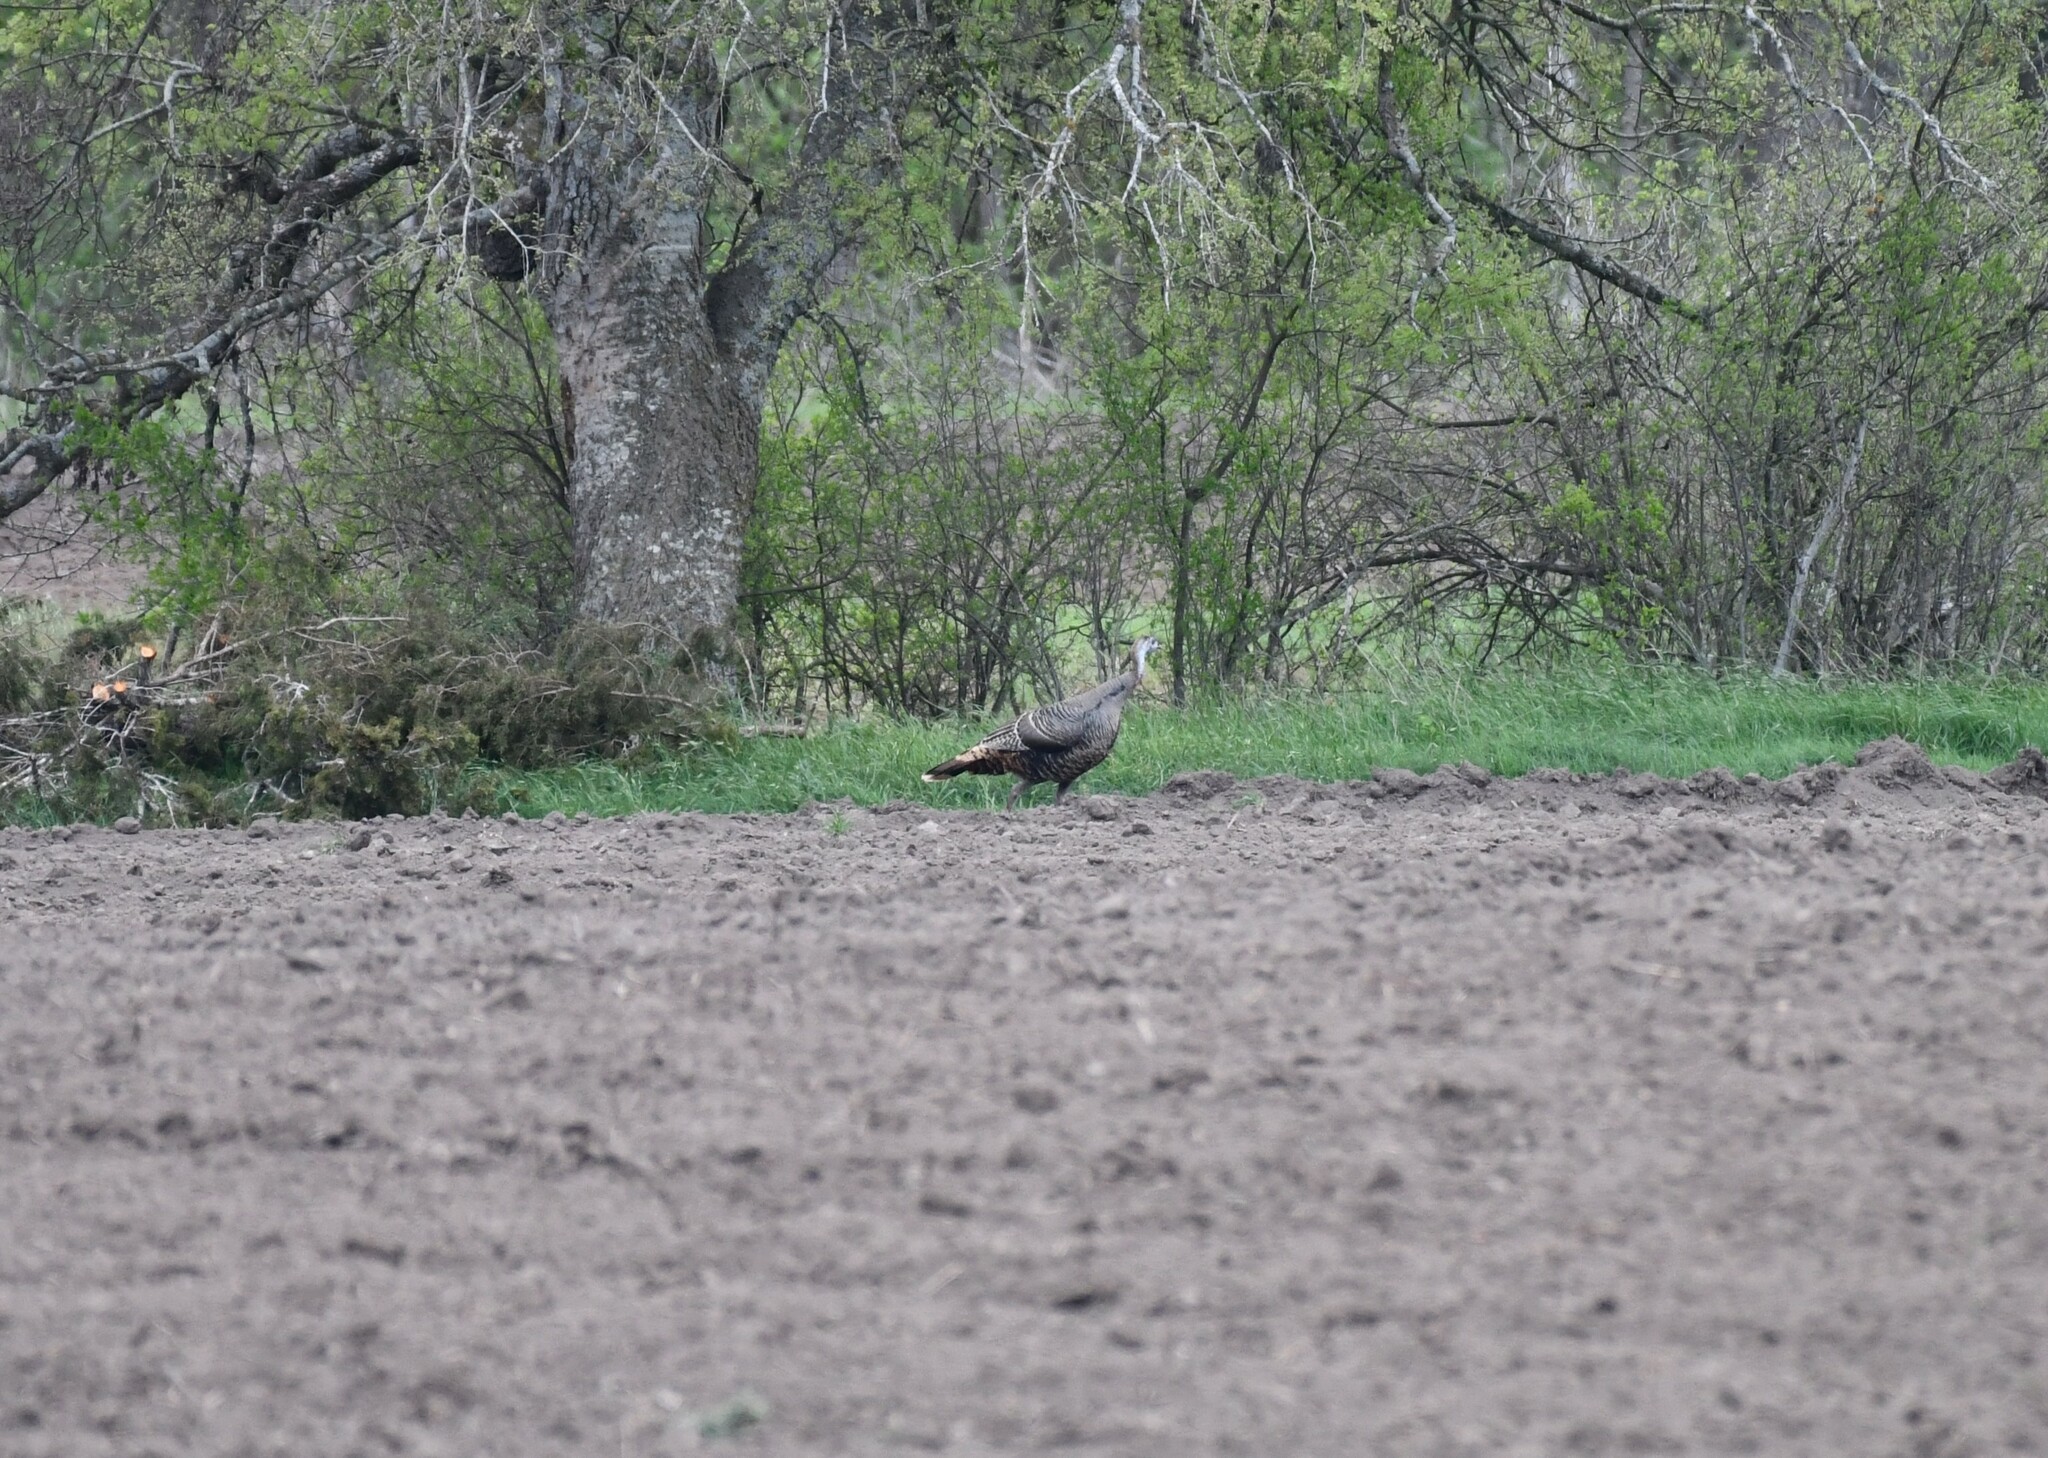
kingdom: Animalia
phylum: Chordata
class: Aves
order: Galliformes
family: Phasianidae
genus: Meleagris
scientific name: Meleagris gallopavo
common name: Wild turkey
